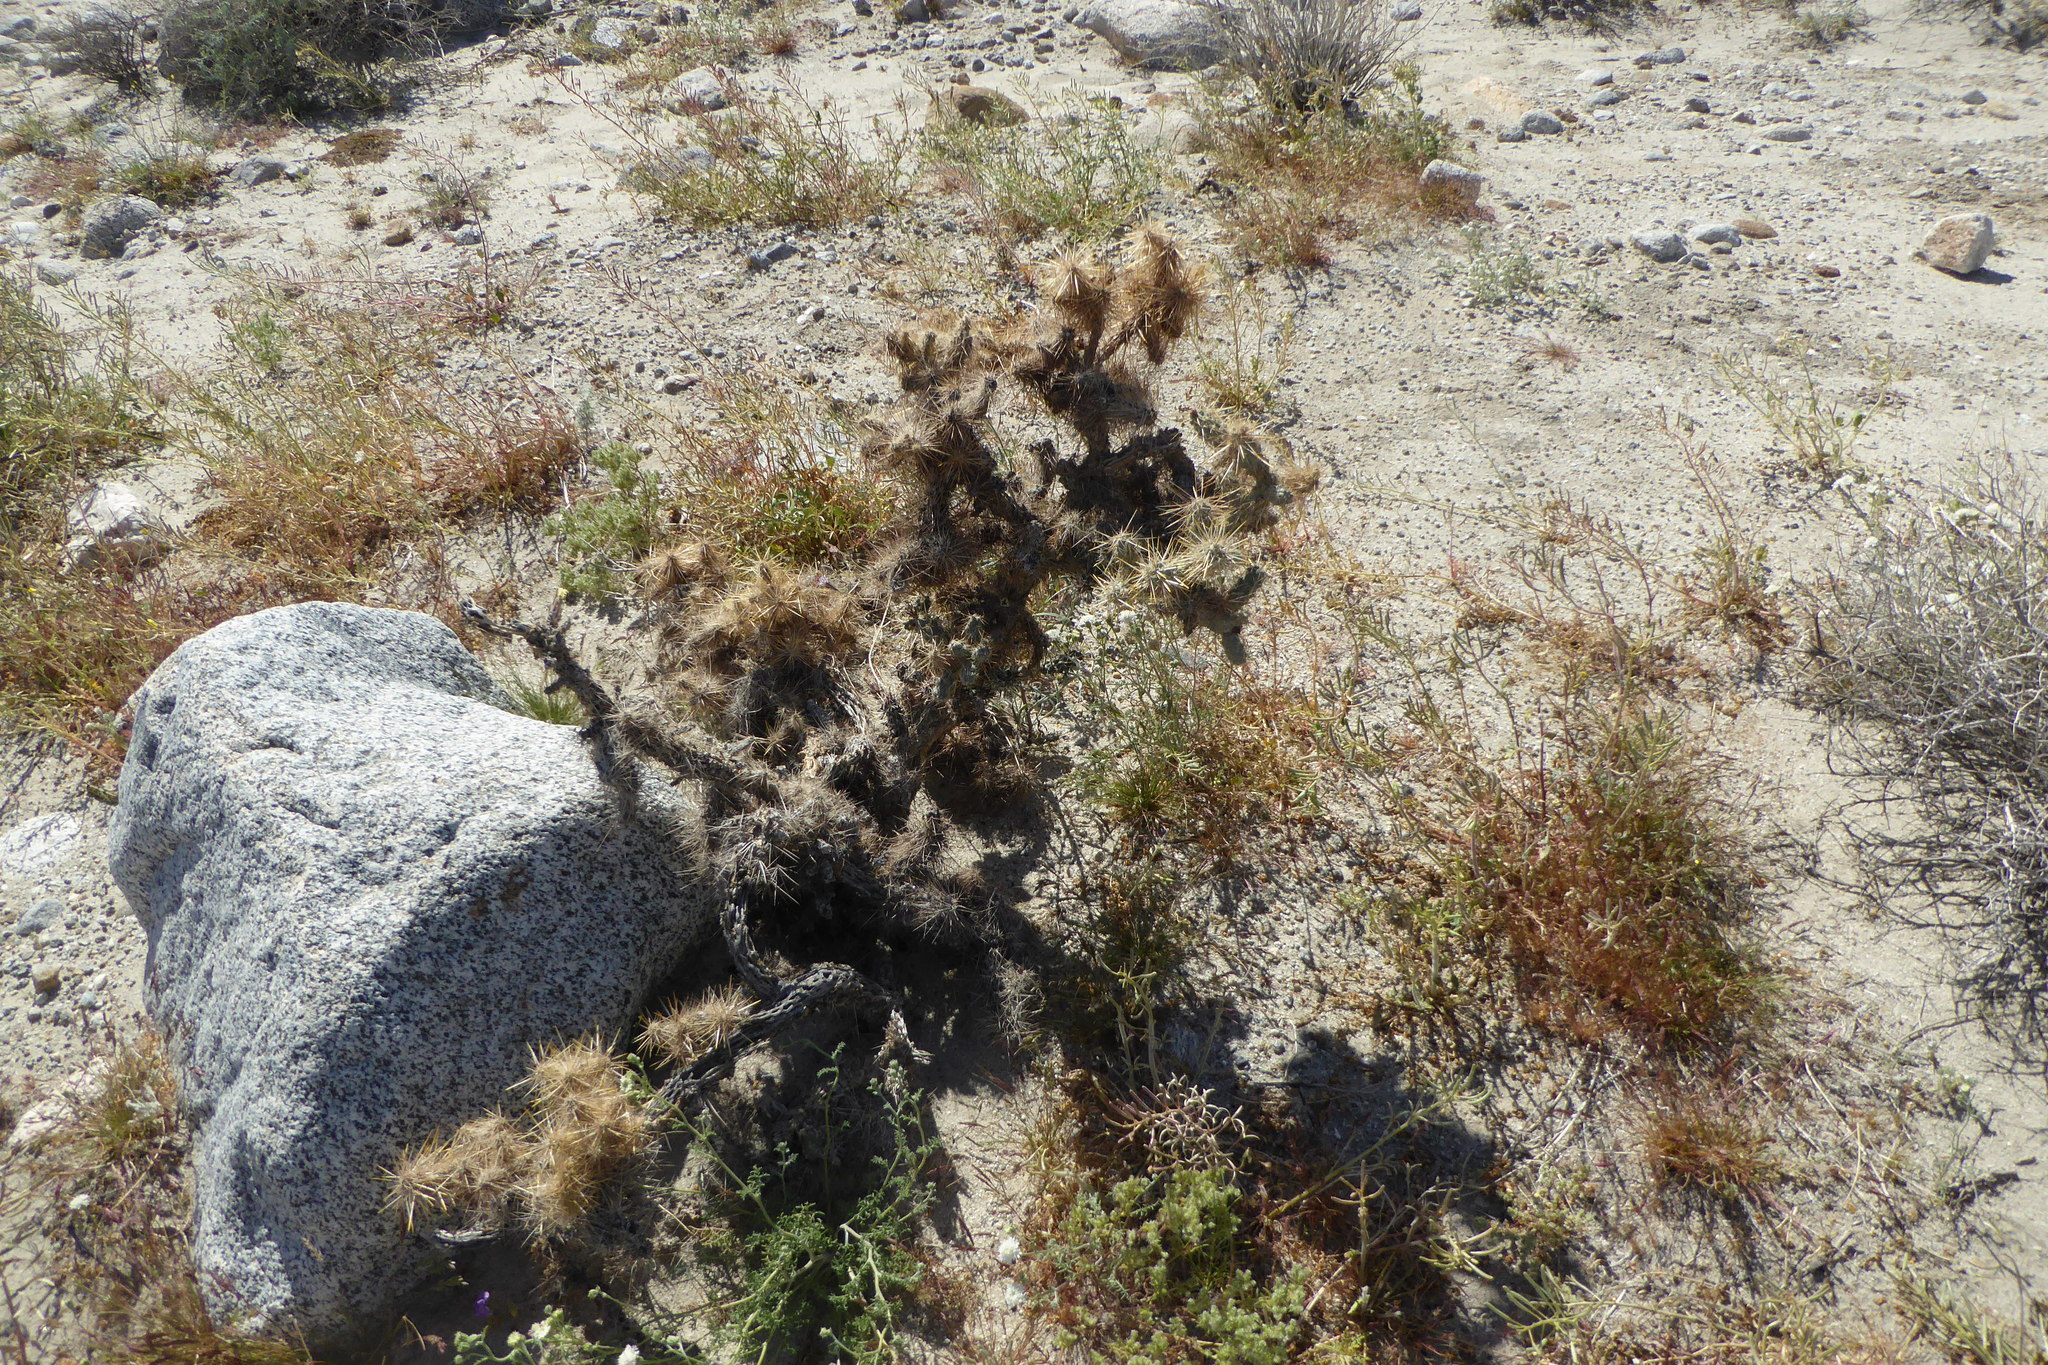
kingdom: Plantae
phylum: Tracheophyta
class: Magnoliopsida
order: Caryophyllales
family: Cactaceae
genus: Cylindropuntia
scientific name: Cylindropuntia echinocarpa
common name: Ground cholla
